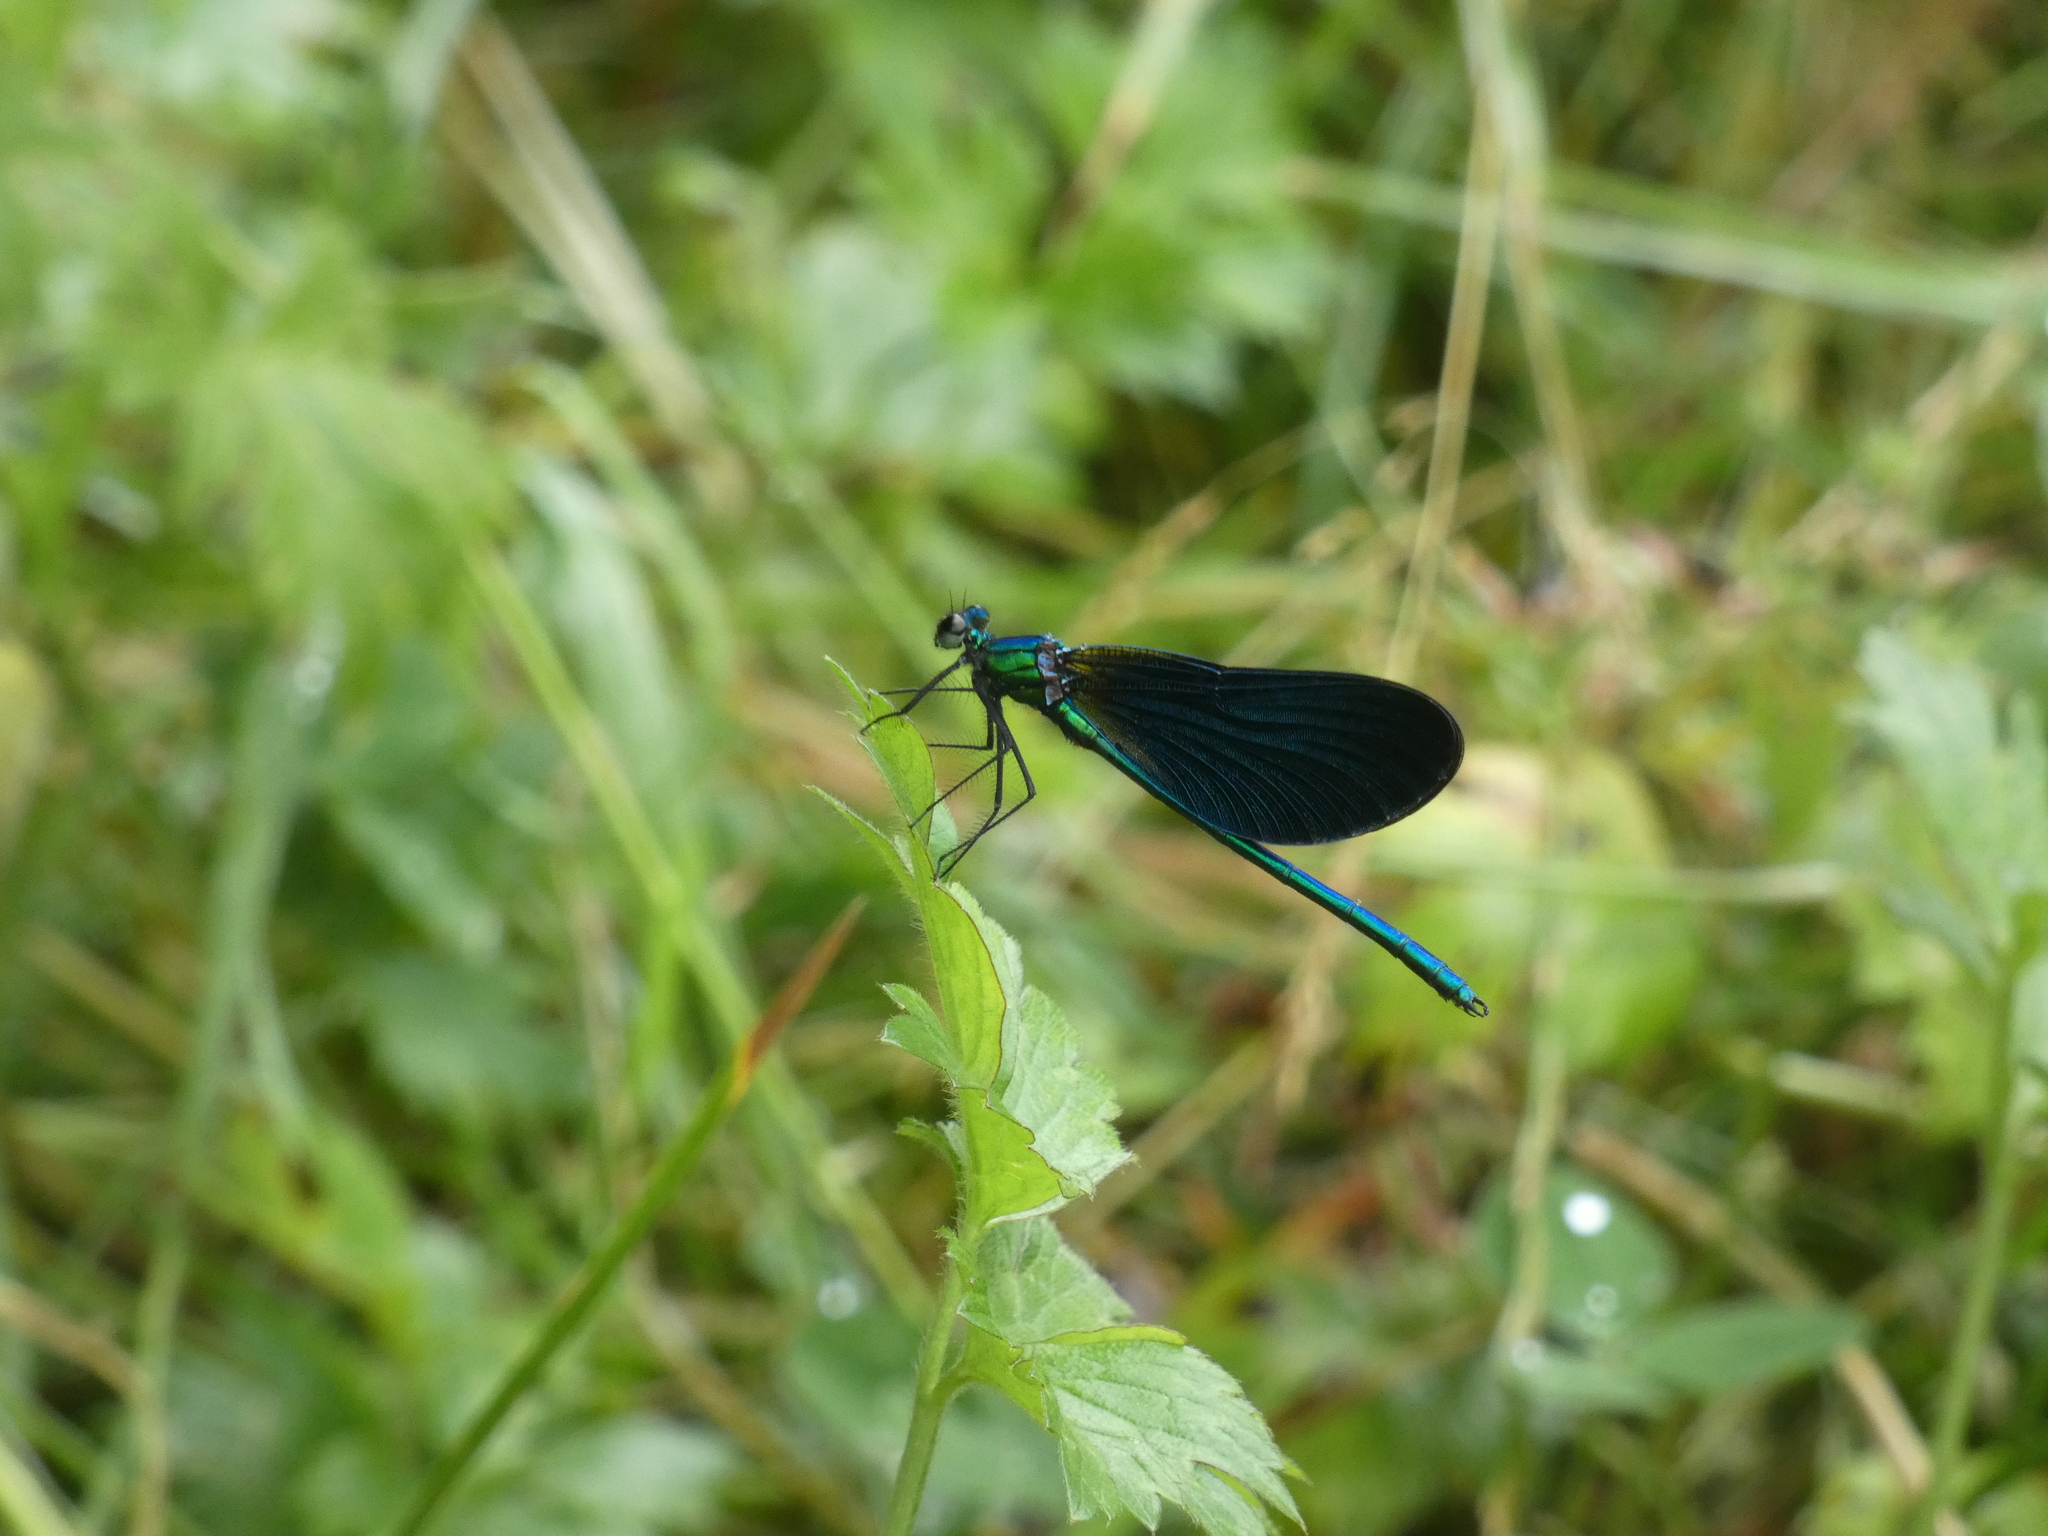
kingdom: Animalia
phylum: Arthropoda
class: Insecta
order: Odonata
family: Calopterygidae
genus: Calopteryx
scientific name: Calopteryx virgo
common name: Beautiful demoiselle
